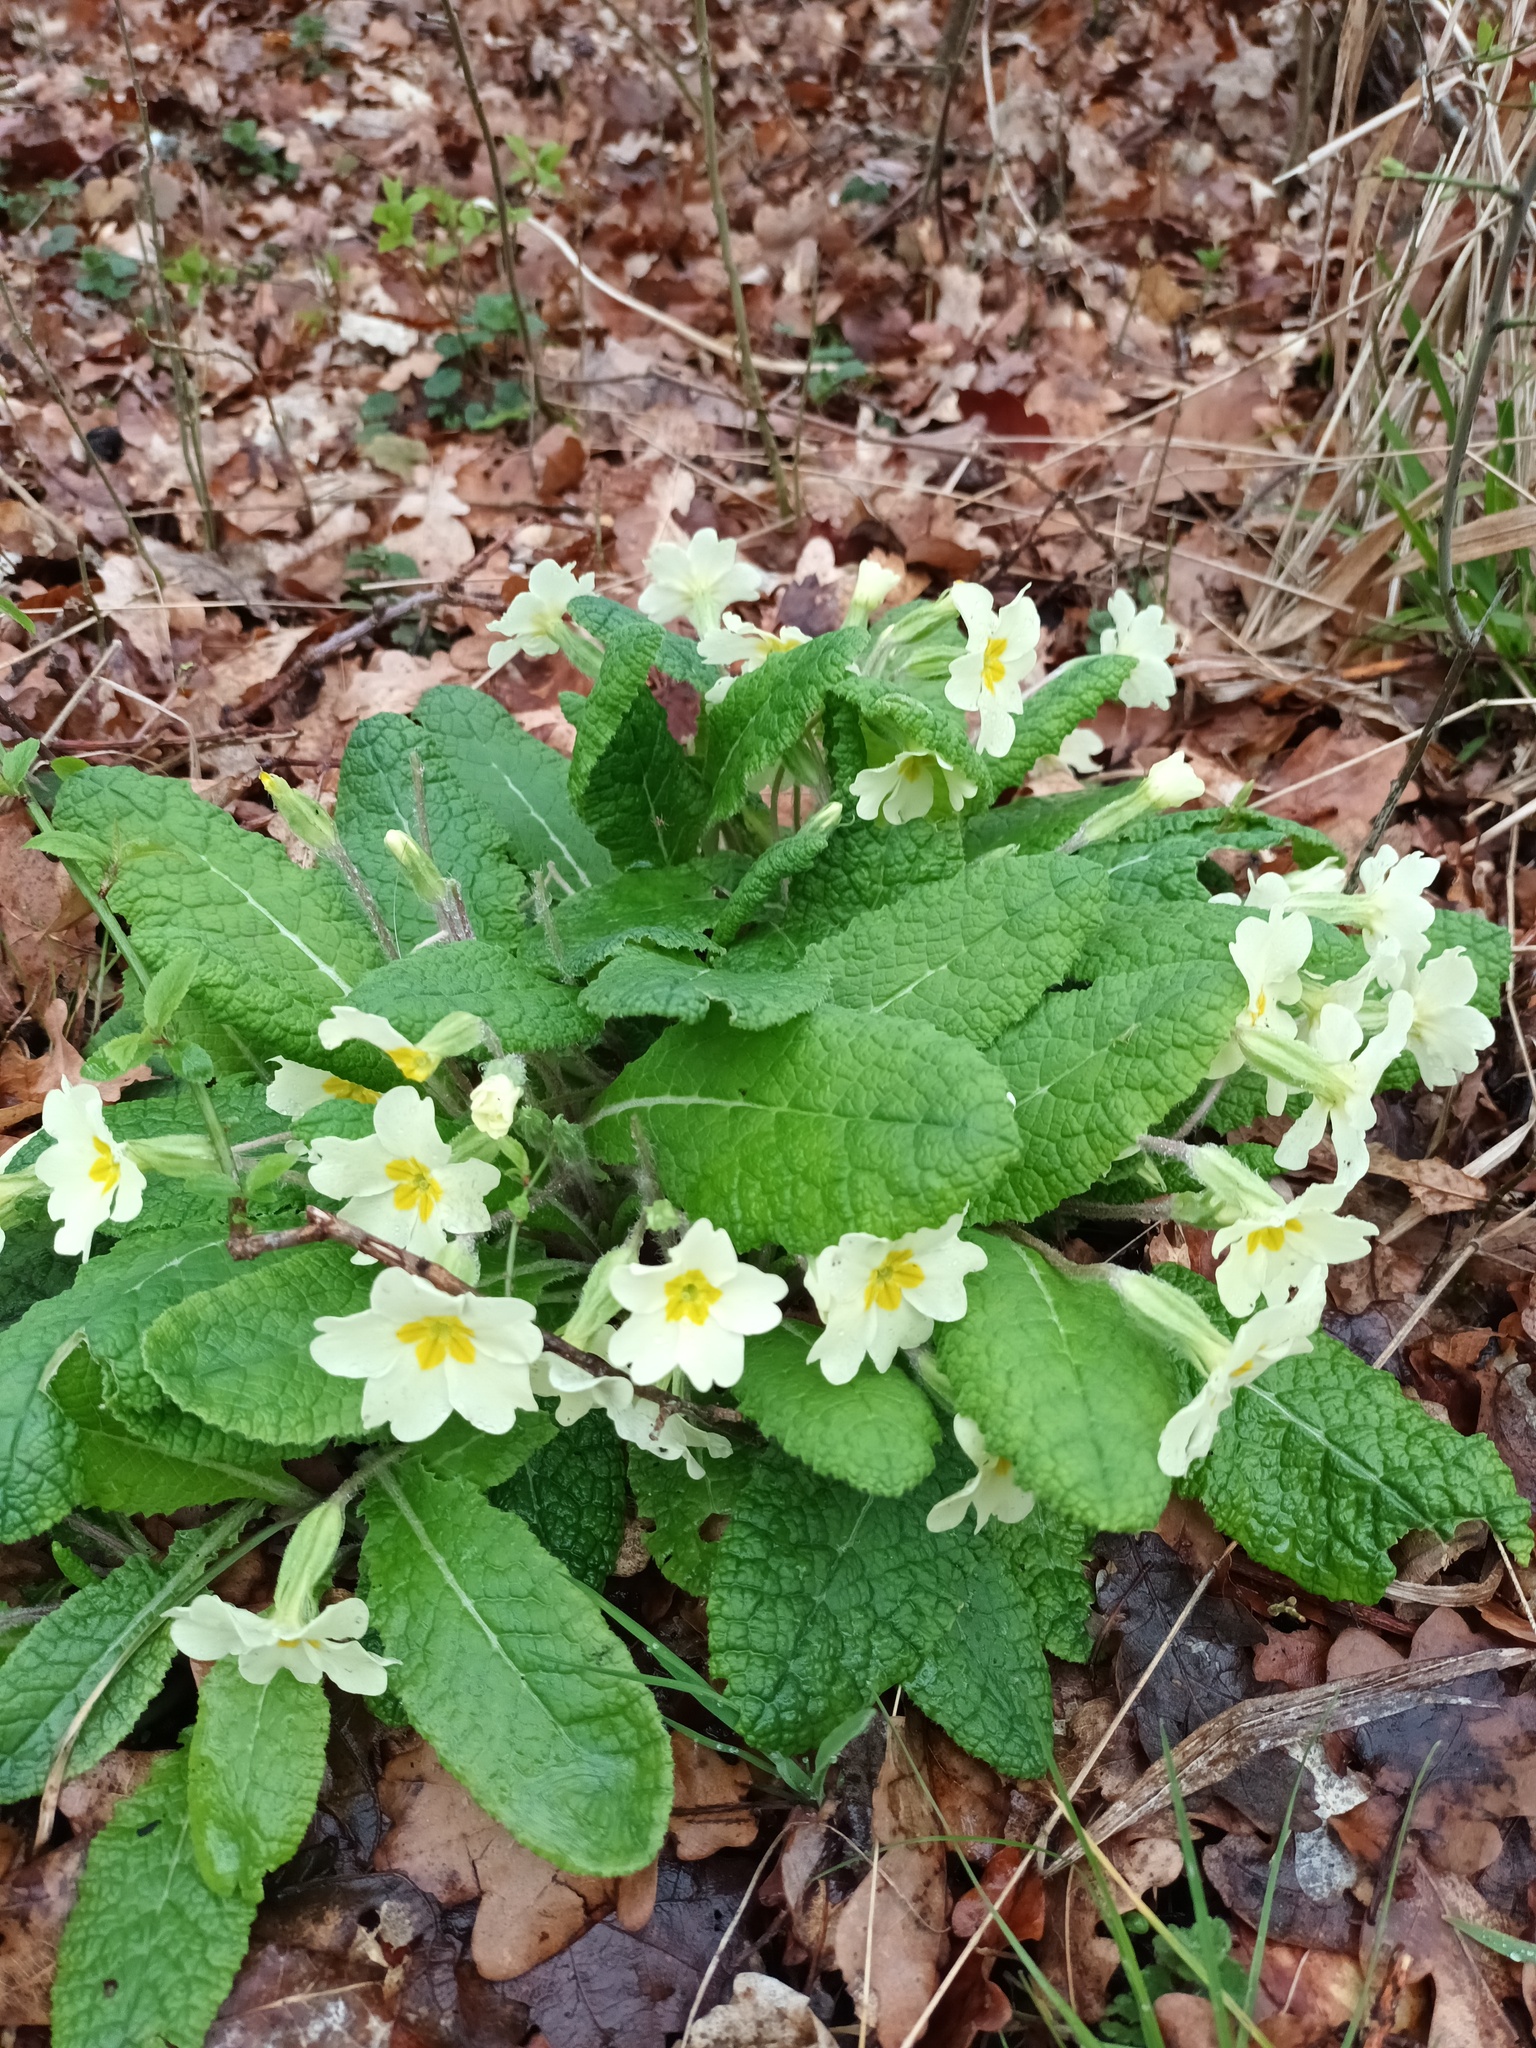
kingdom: Plantae
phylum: Tracheophyta
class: Magnoliopsida
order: Ericales
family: Primulaceae
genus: Primula
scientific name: Primula vulgaris
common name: Primrose
